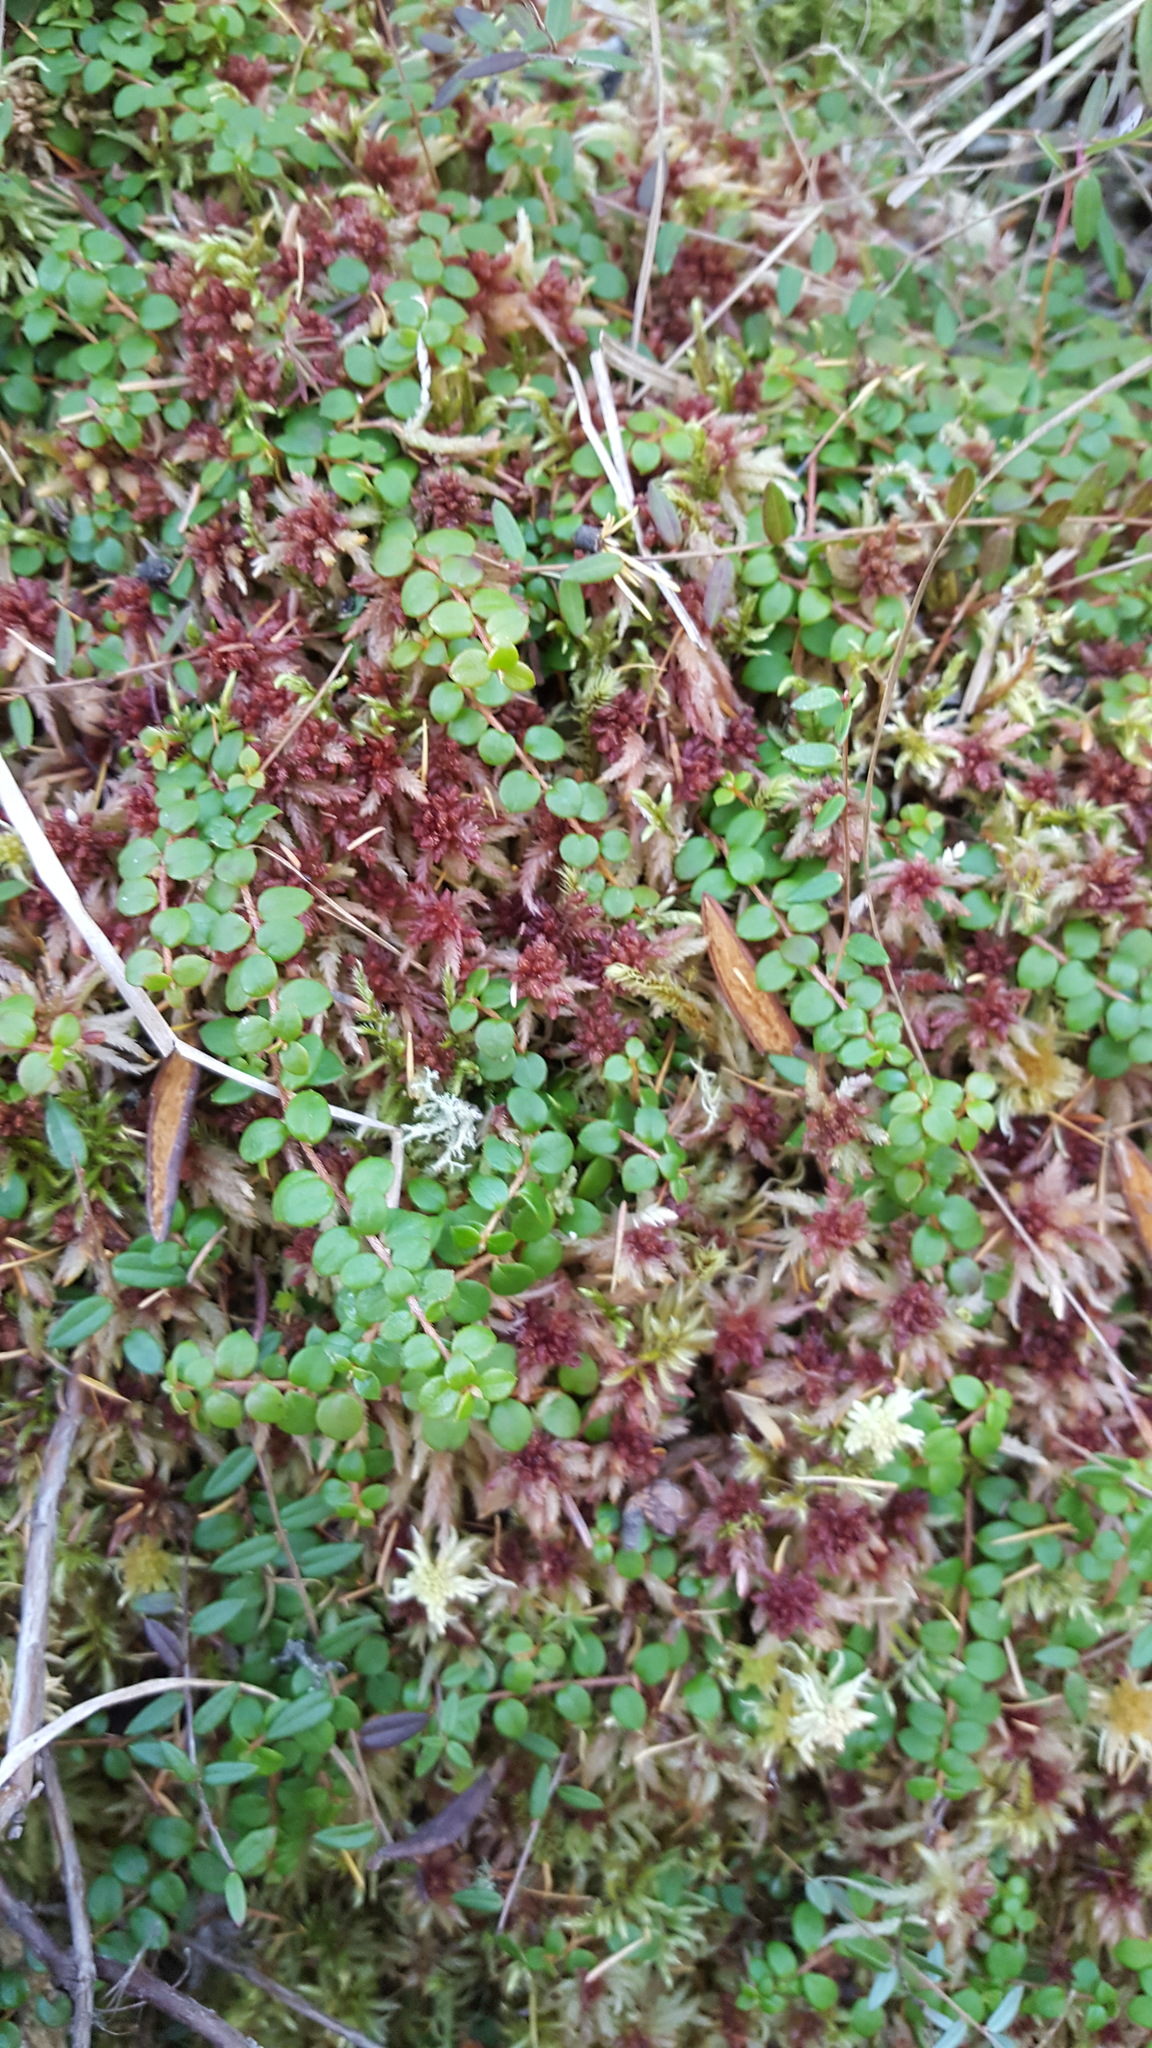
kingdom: Plantae
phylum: Tracheophyta
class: Magnoliopsida
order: Ericales
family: Ericaceae
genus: Gaultheria
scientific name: Gaultheria hispidula
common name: Cancer wintergreen
